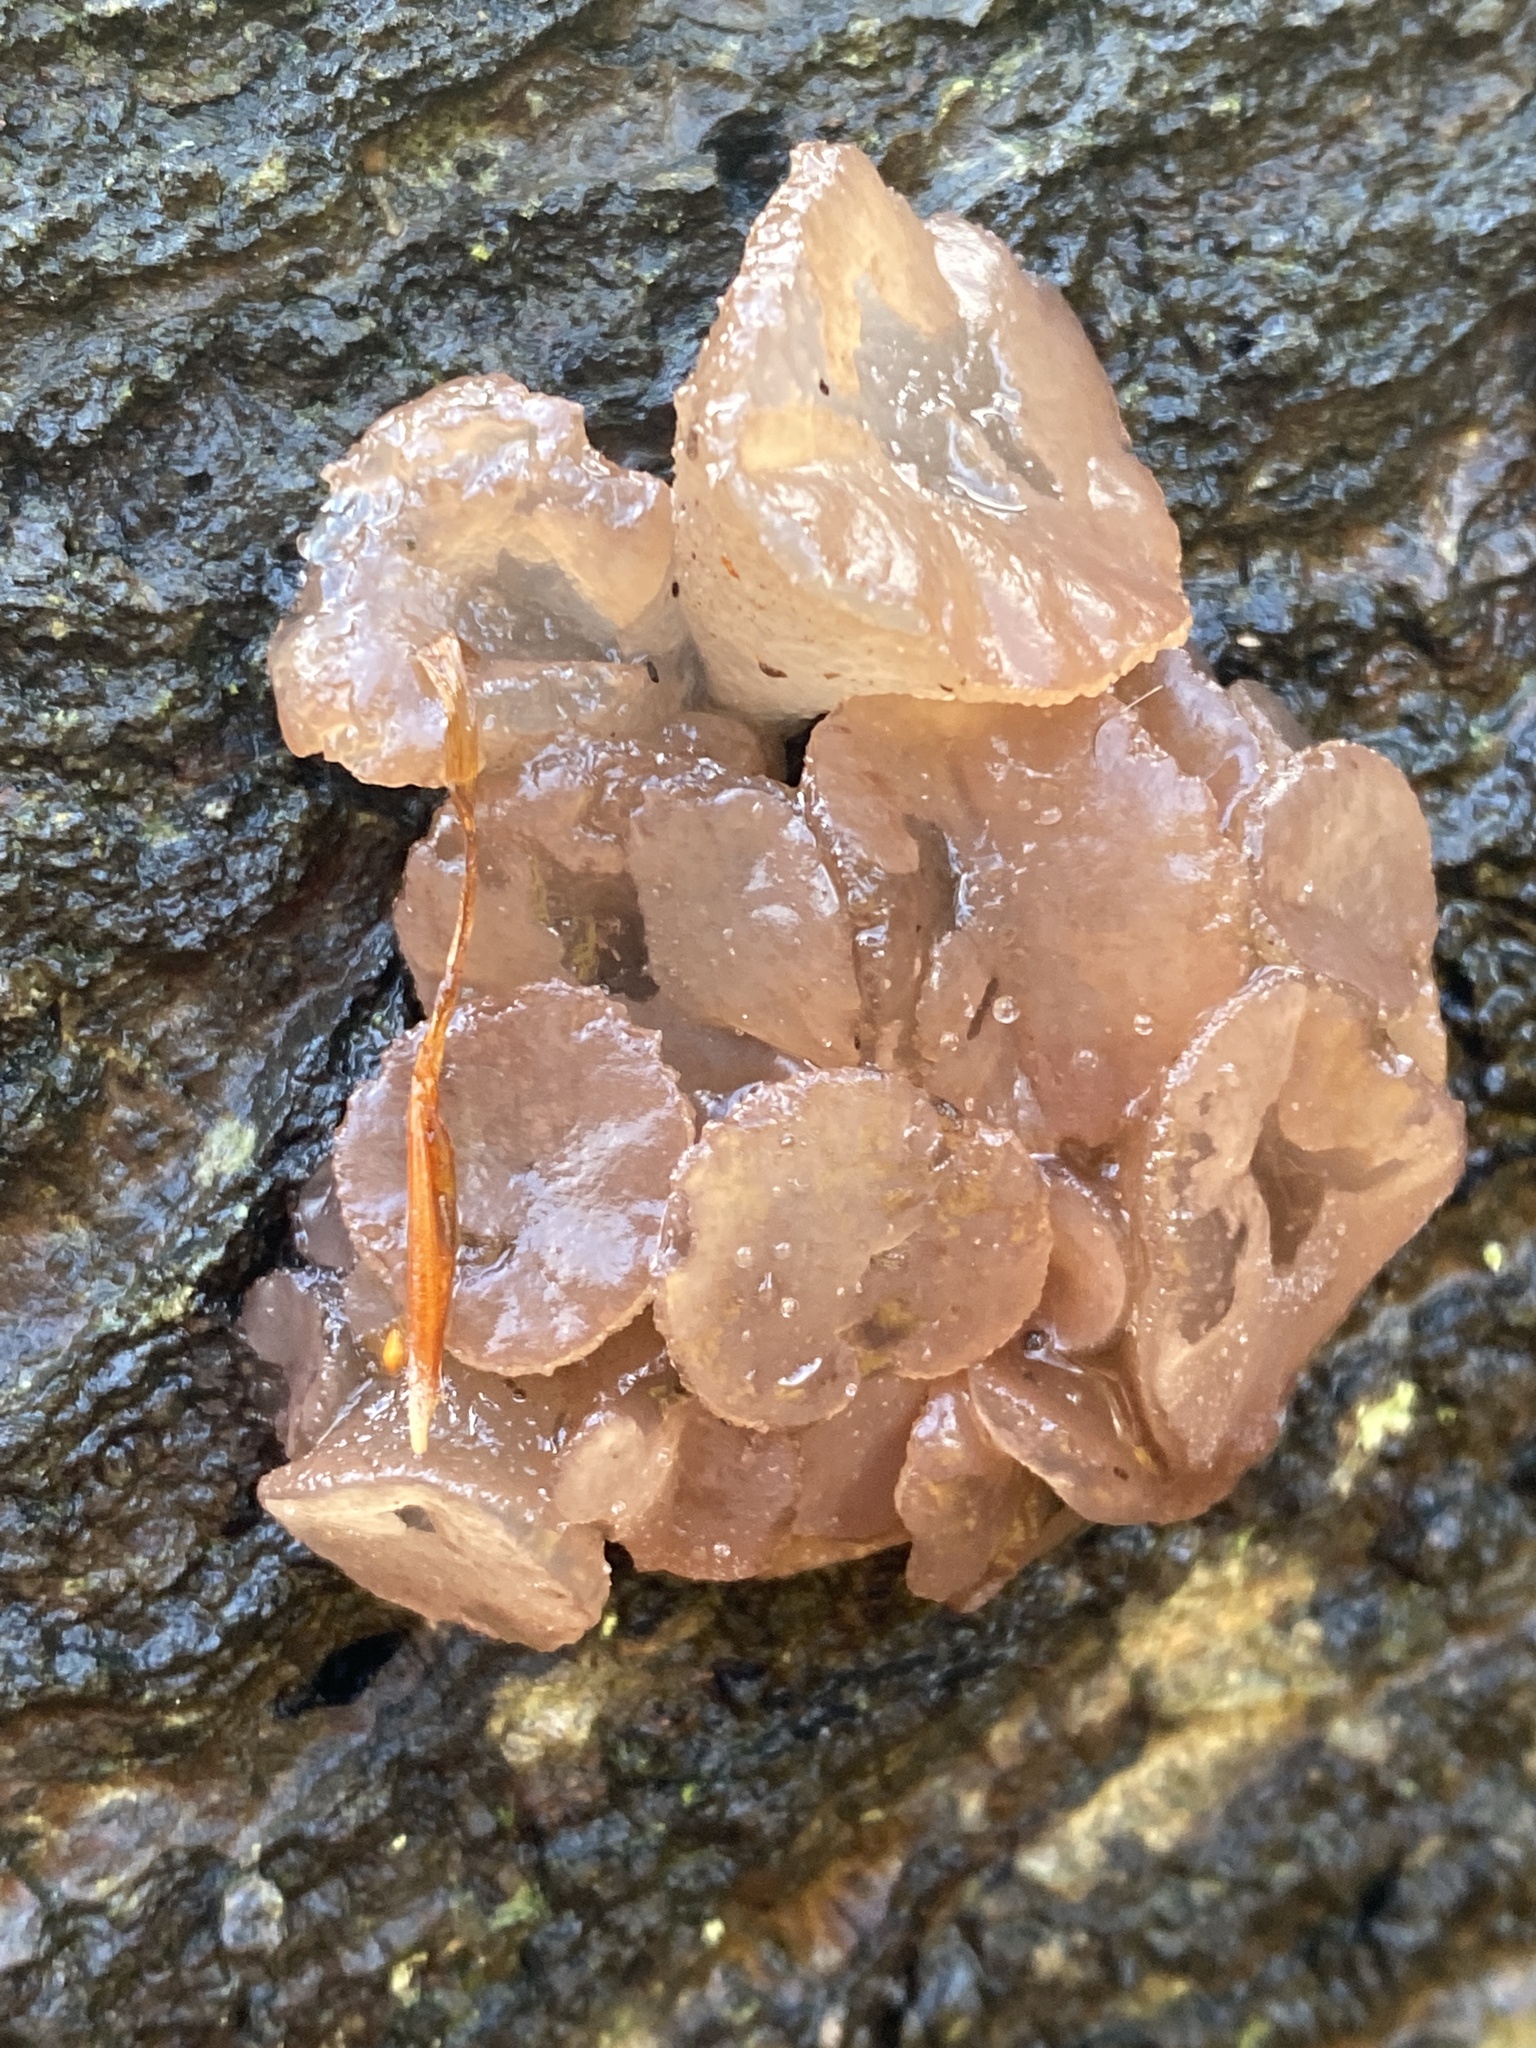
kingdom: Fungi
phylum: Ascomycota
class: Leotiomycetes
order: Helotiales
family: Gelatinodiscaceae
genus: Neobulgaria
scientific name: Neobulgaria pura
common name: Beech jelly-disc
